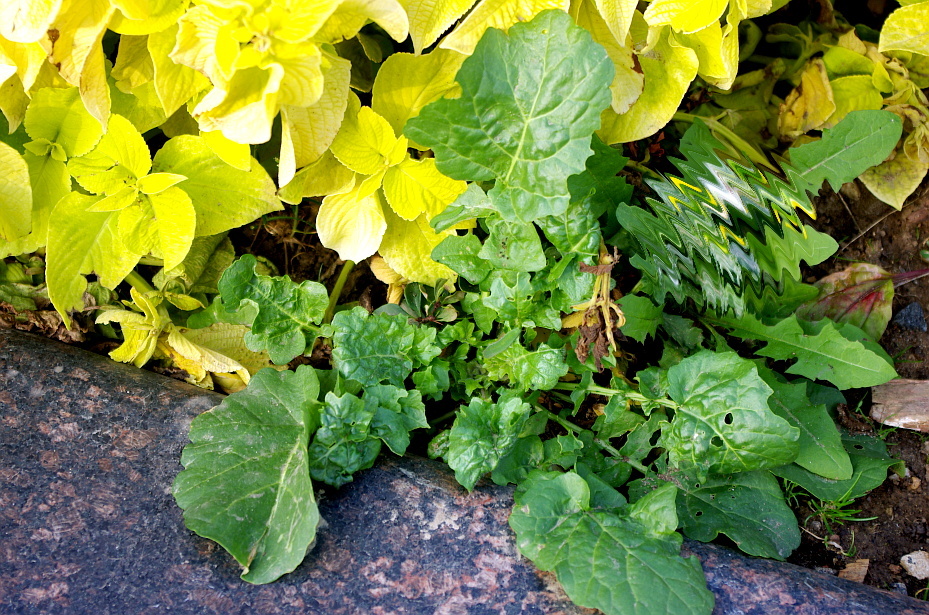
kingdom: Plantae
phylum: Tracheophyta
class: Magnoliopsida
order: Brassicales
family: Brassicaceae
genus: Barbarea
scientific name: Barbarea vulgaris
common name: Cressy-greens
